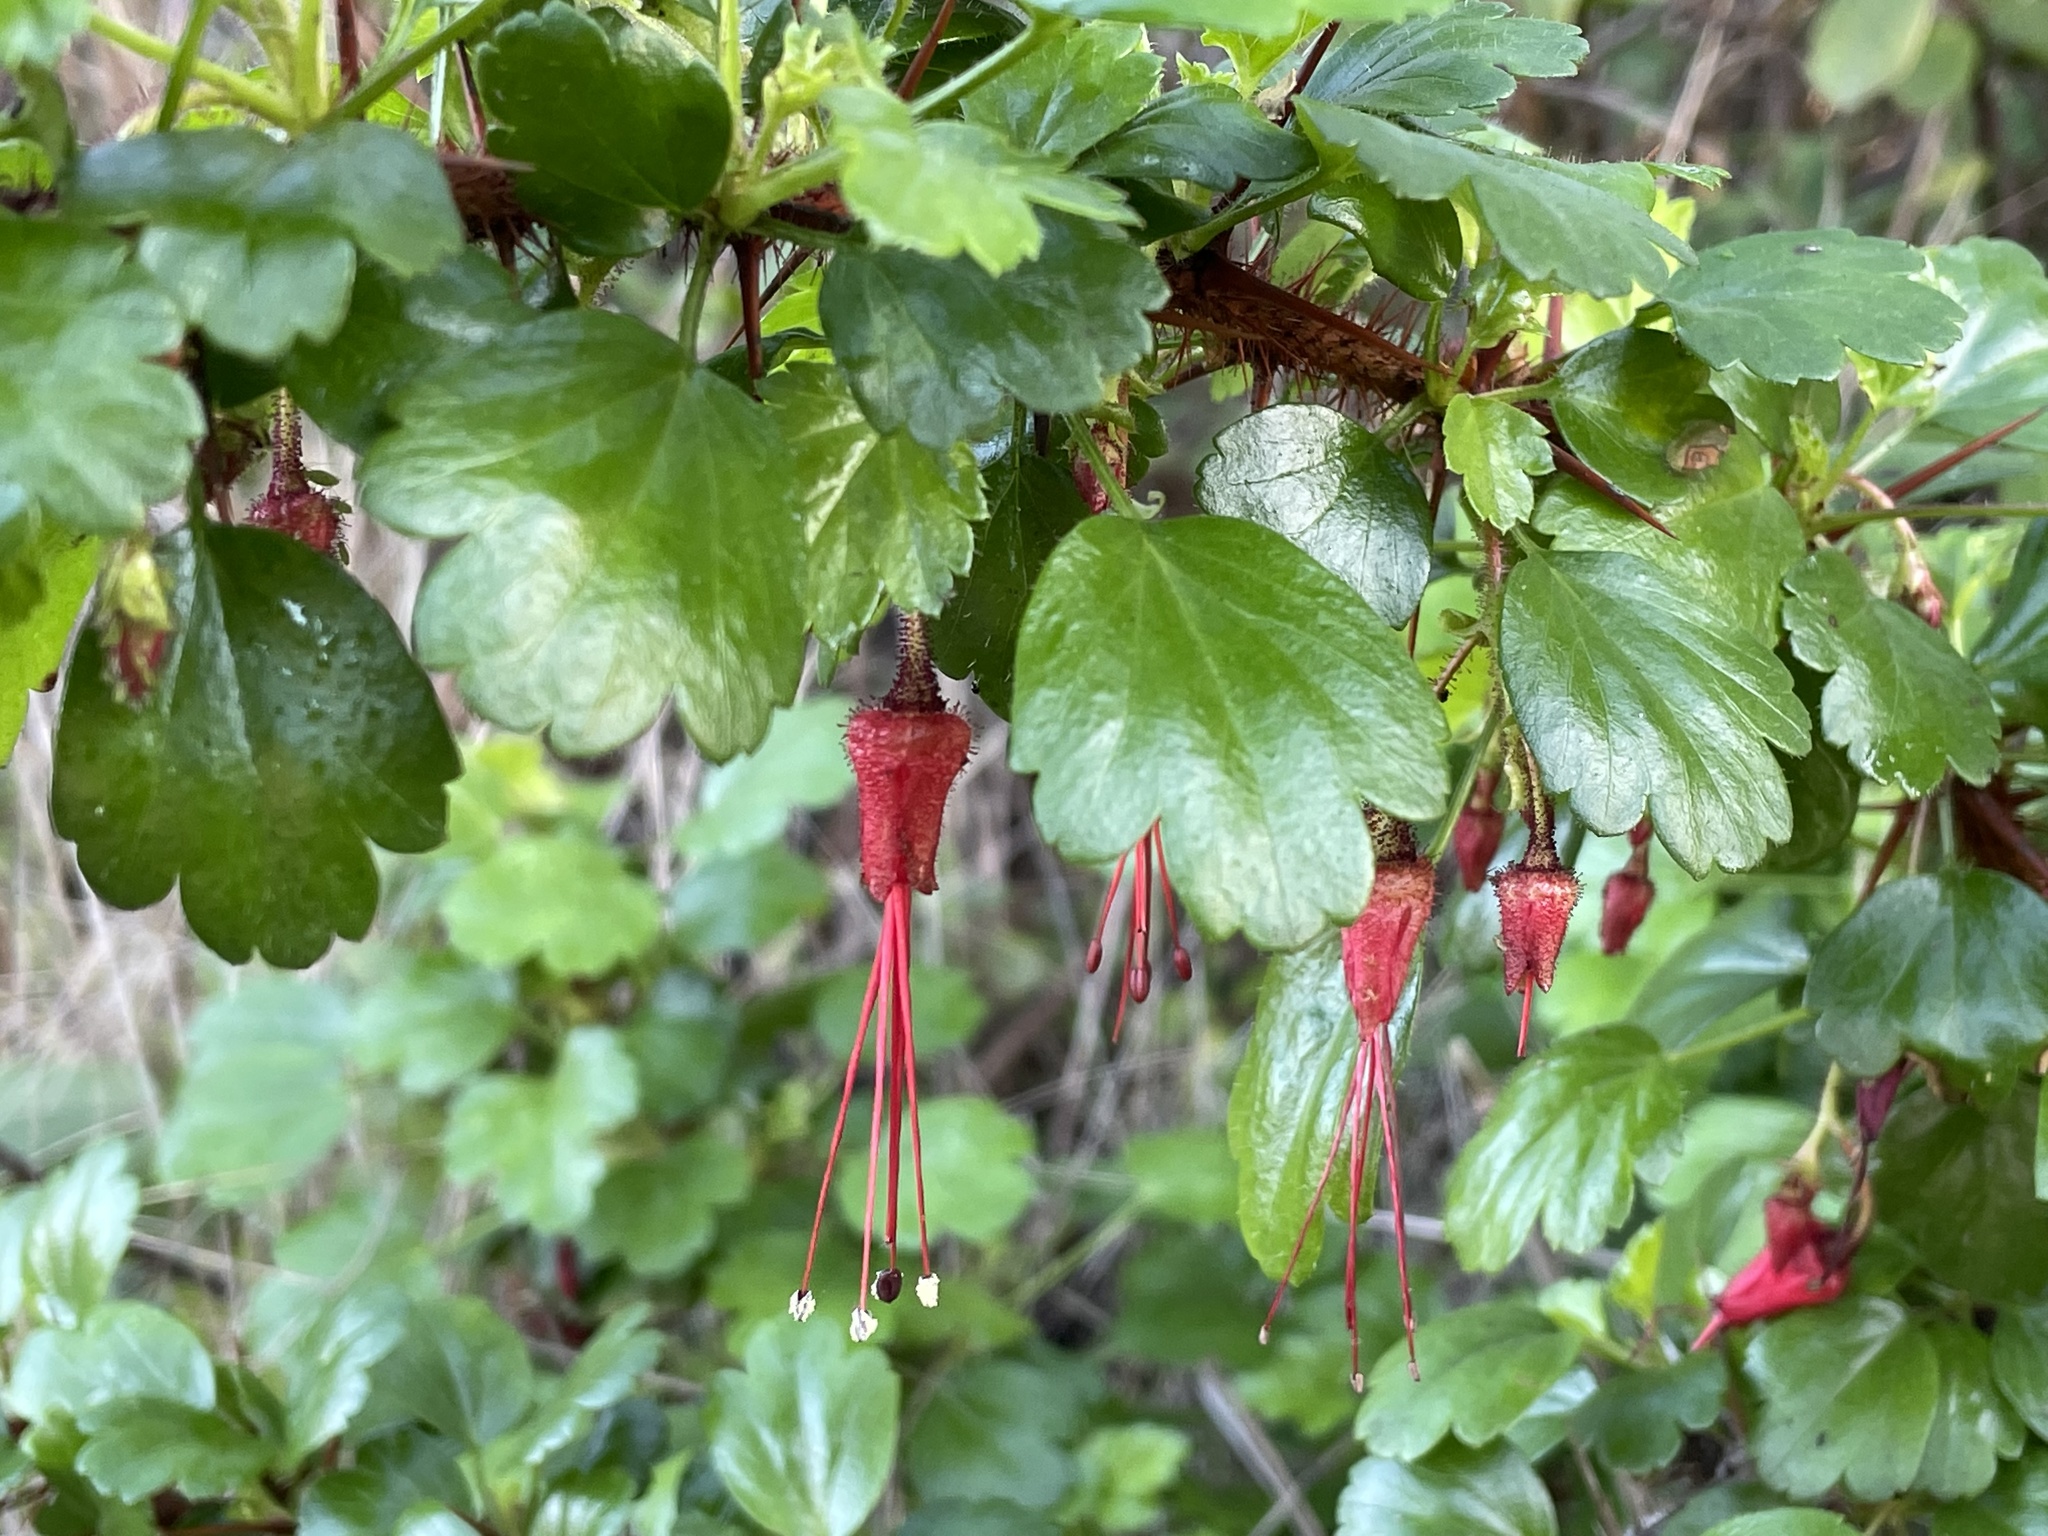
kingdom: Plantae
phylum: Tracheophyta
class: Magnoliopsida
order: Saxifragales
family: Grossulariaceae
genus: Ribes
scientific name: Ribes speciosum
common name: Fuchsia-flower gooseberry
